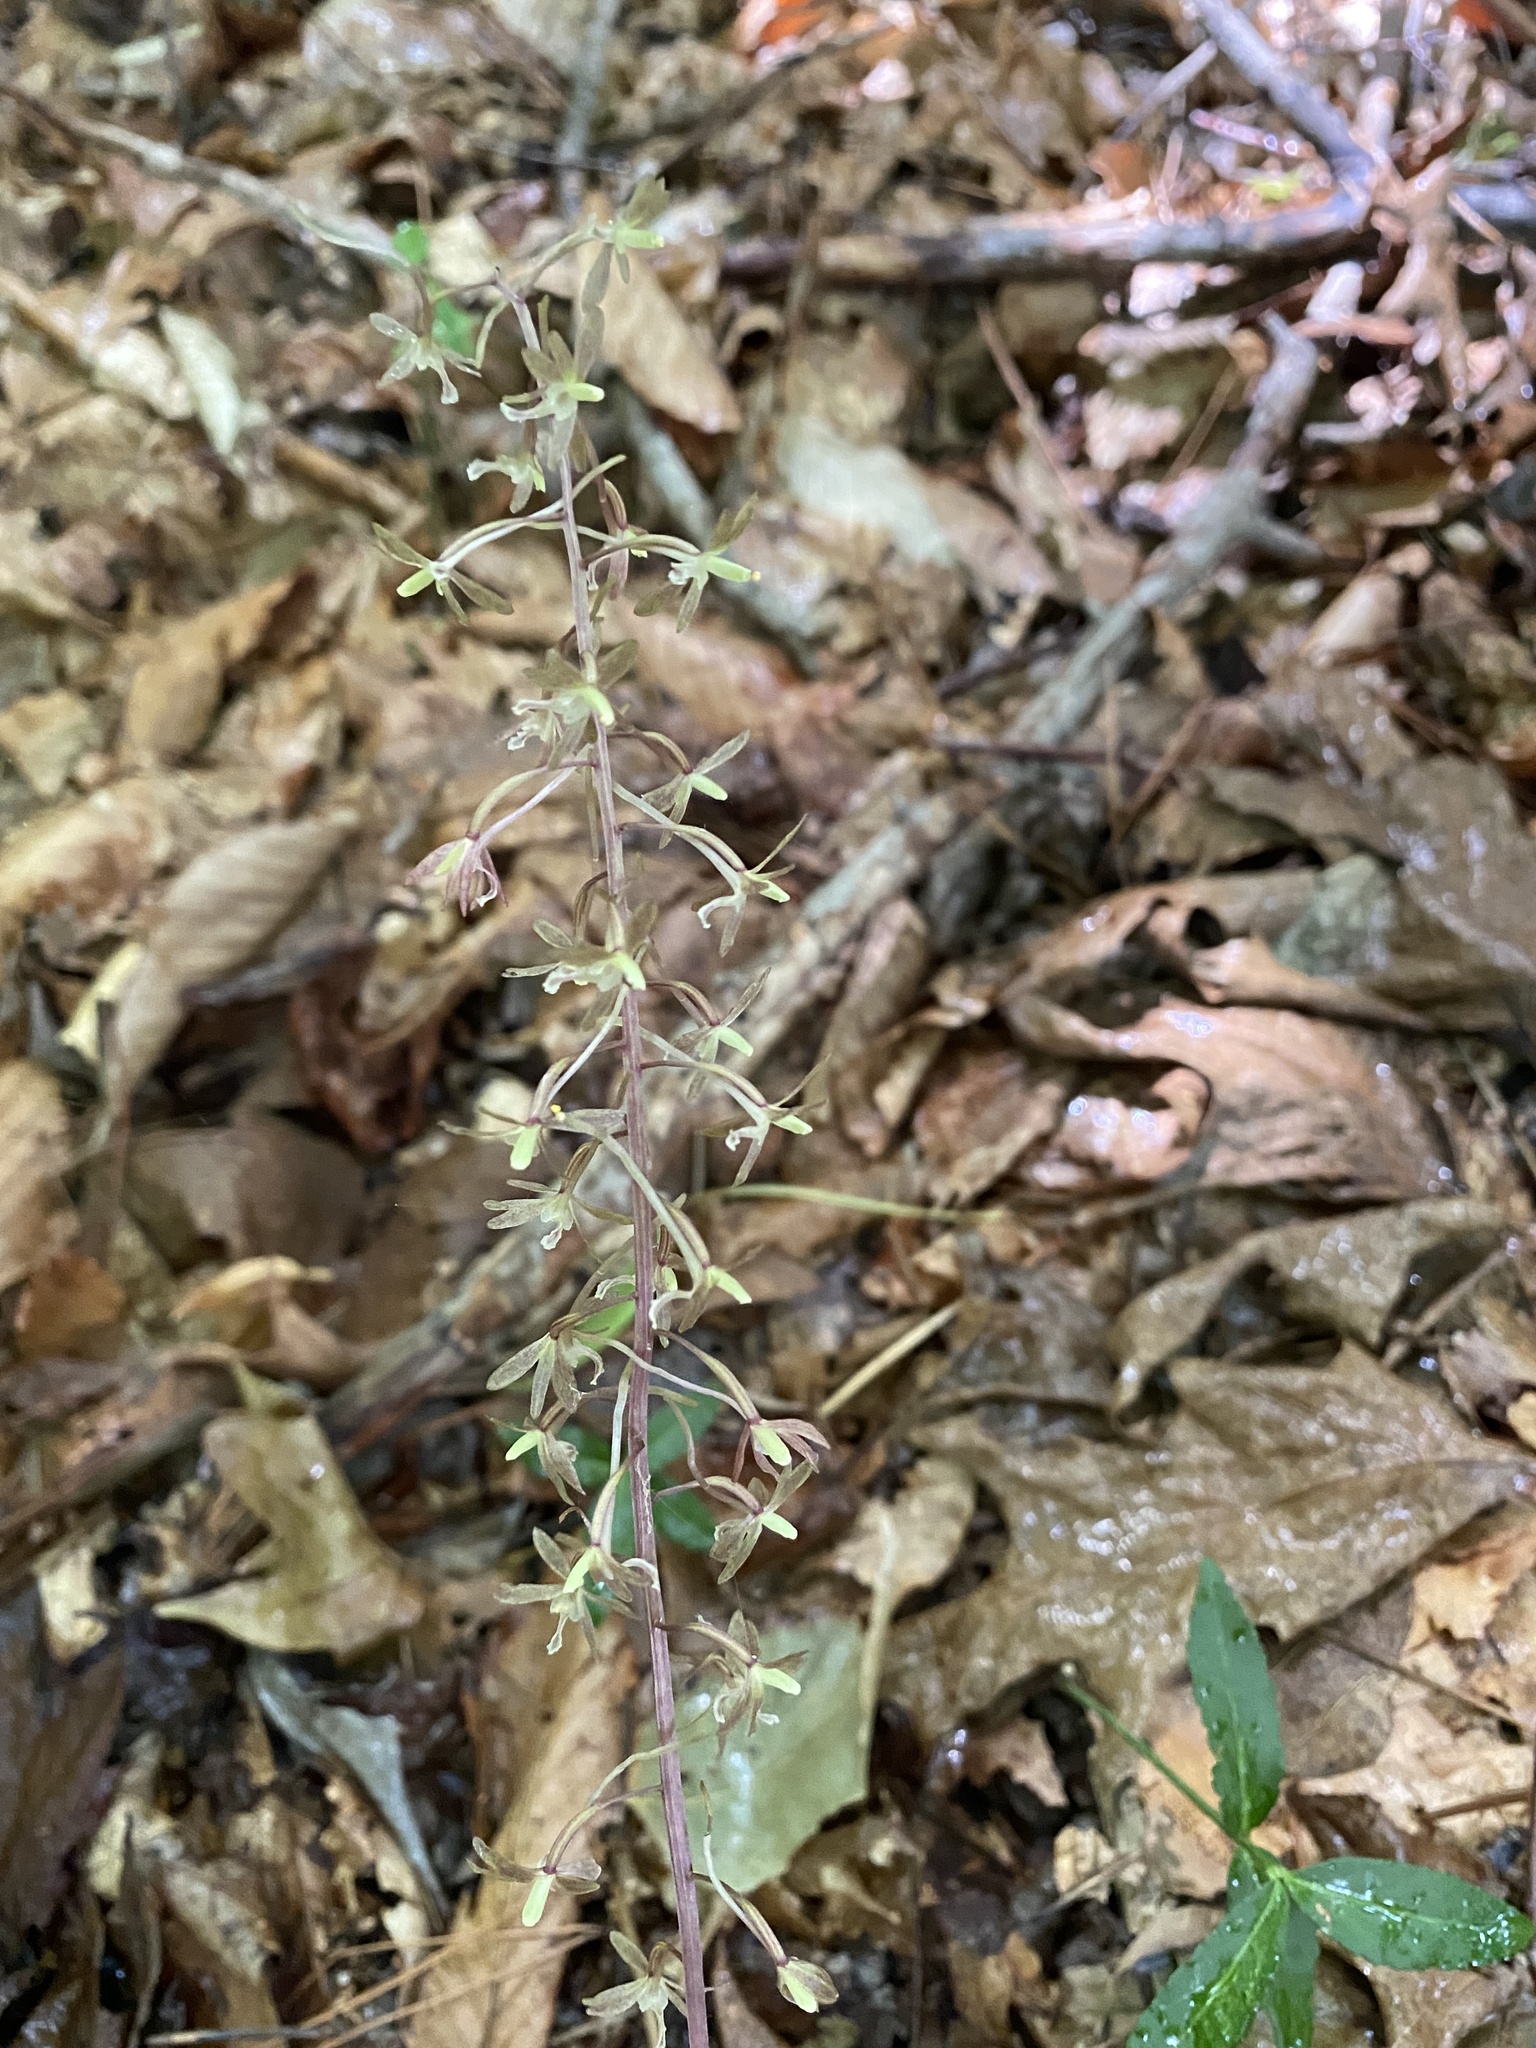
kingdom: Plantae
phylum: Tracheophyta
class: Liliopsida
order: Asparagales
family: Orchidaceae
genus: Tipularia
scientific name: Tipularia discolor
